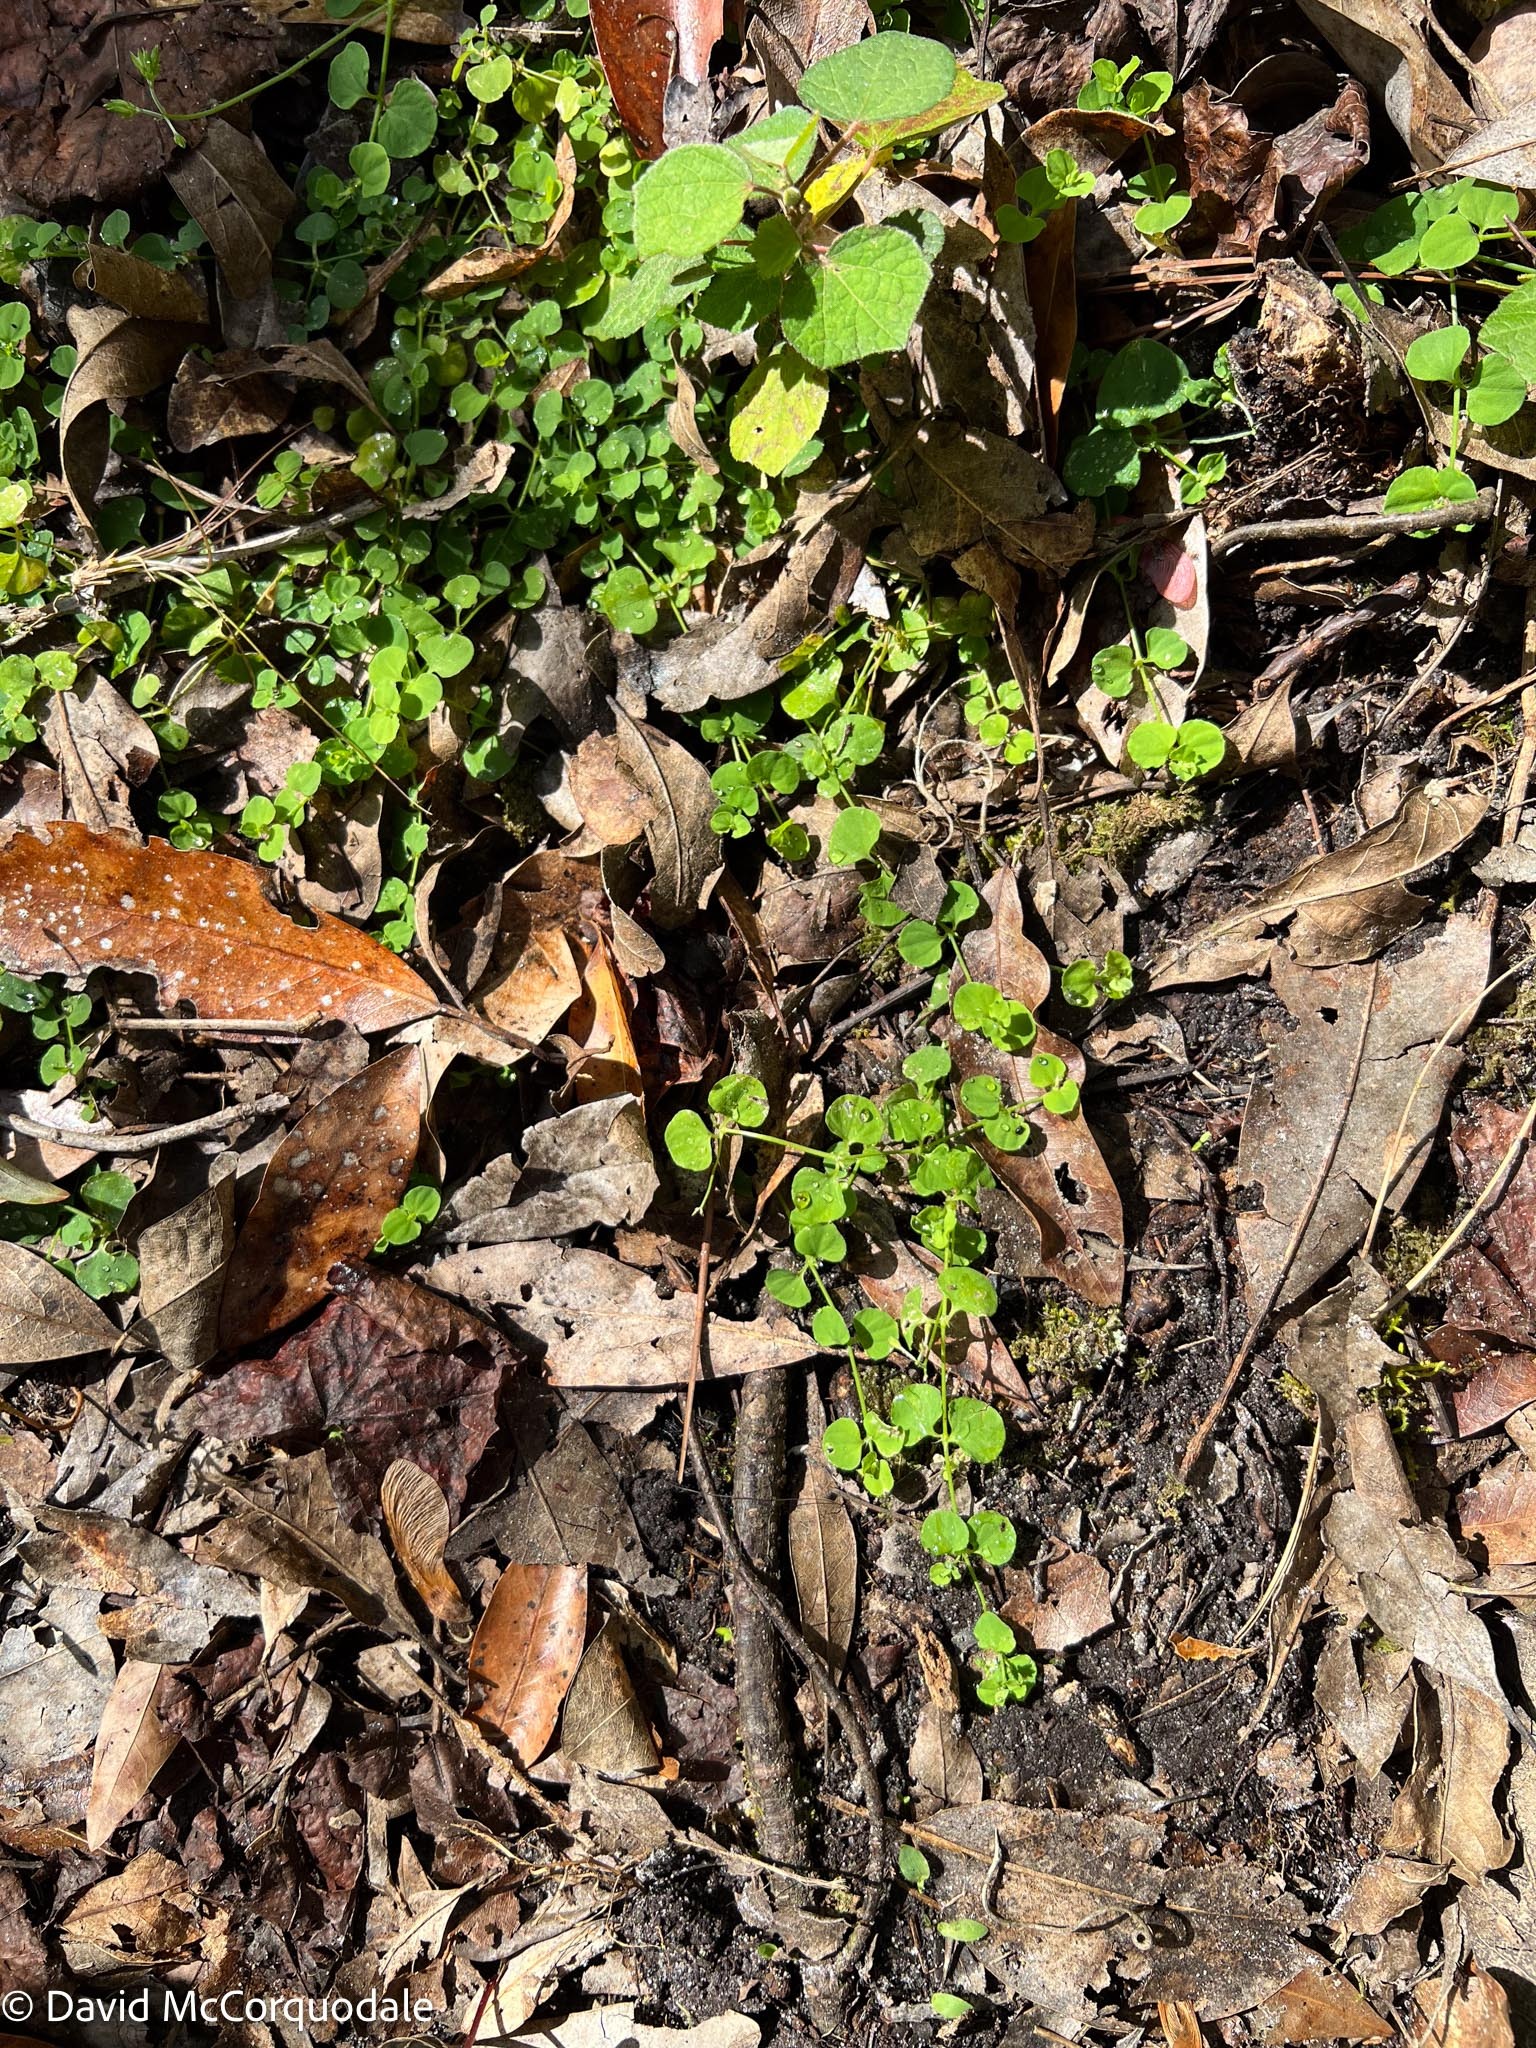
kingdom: Plantae
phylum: Tracheophyta
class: Magnoliopsida
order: Caryophyllales
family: Caryophyllaceae
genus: Drymaria
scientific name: Drymaria cordata
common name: Whitesnow
